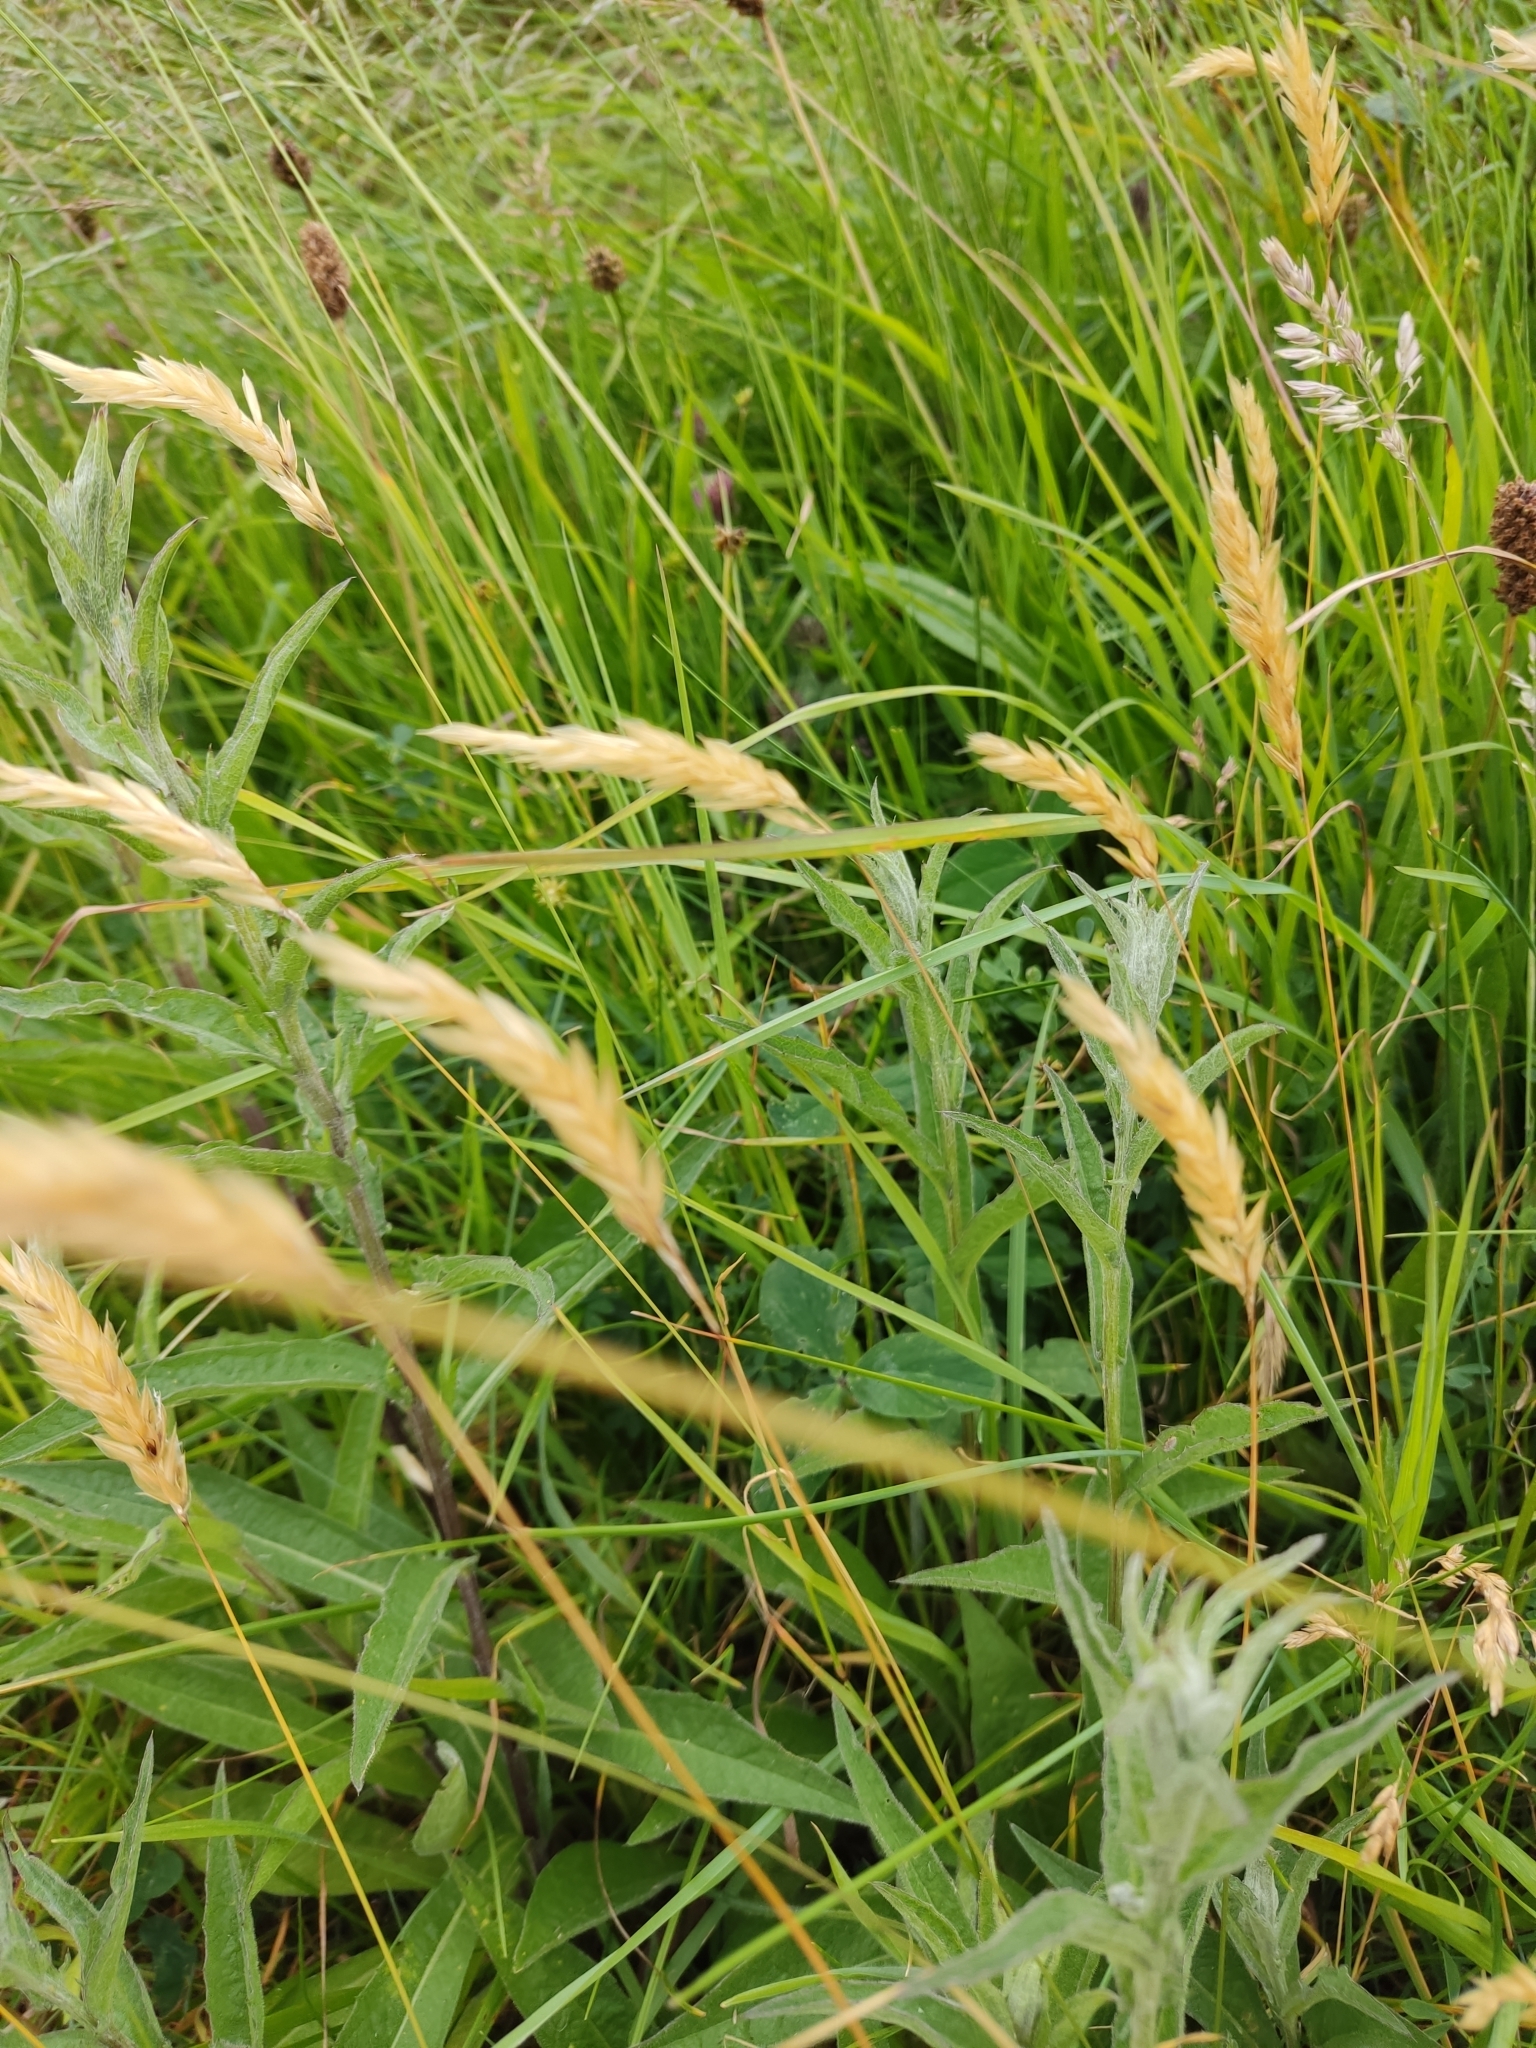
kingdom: Plantae
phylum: Tracheophyta
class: Liliopsida
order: Poales
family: Poaceae
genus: Anthoxanthum
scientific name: Anthoxanthum odoratum
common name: Sweet vernalgrass
